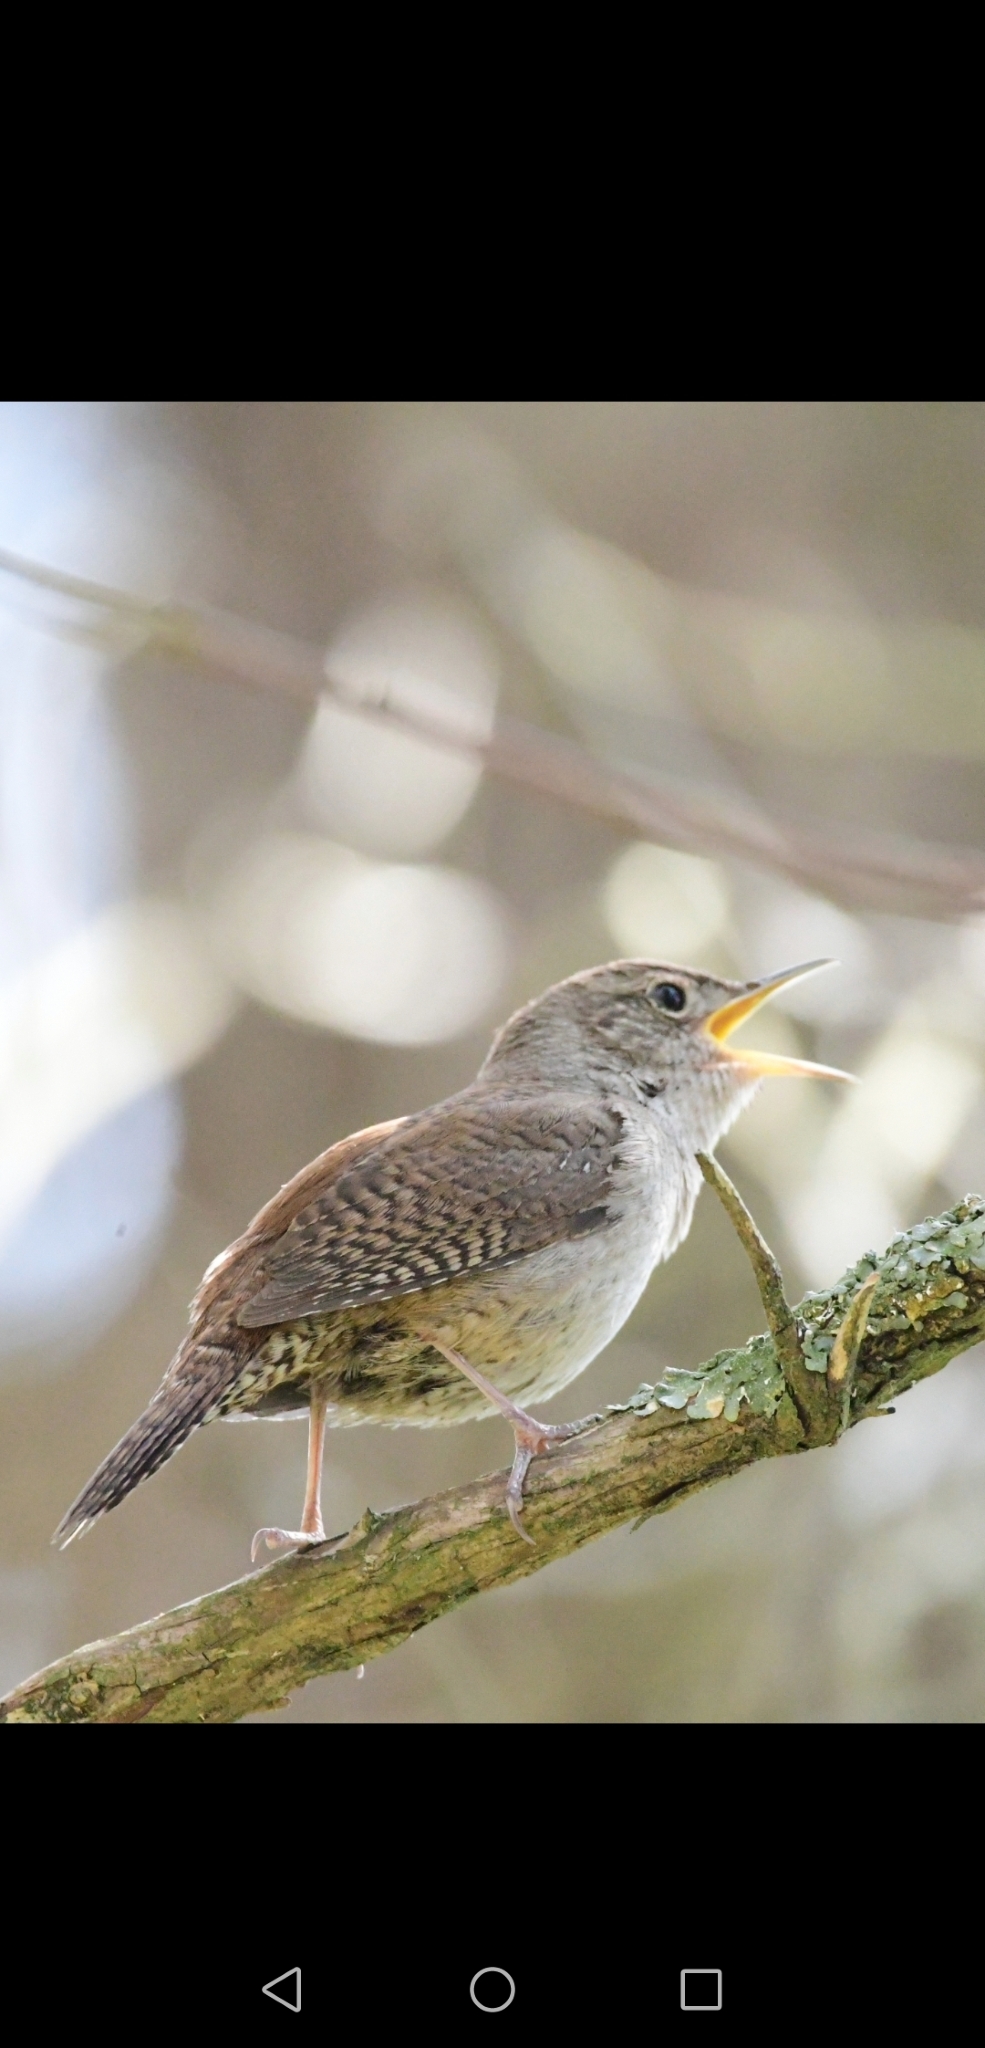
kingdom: Animalia
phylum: Chordata
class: Aves
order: Passeriformes
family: Troglodytidae
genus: Troglodytes
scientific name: Troglodytes aedon
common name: House wren
